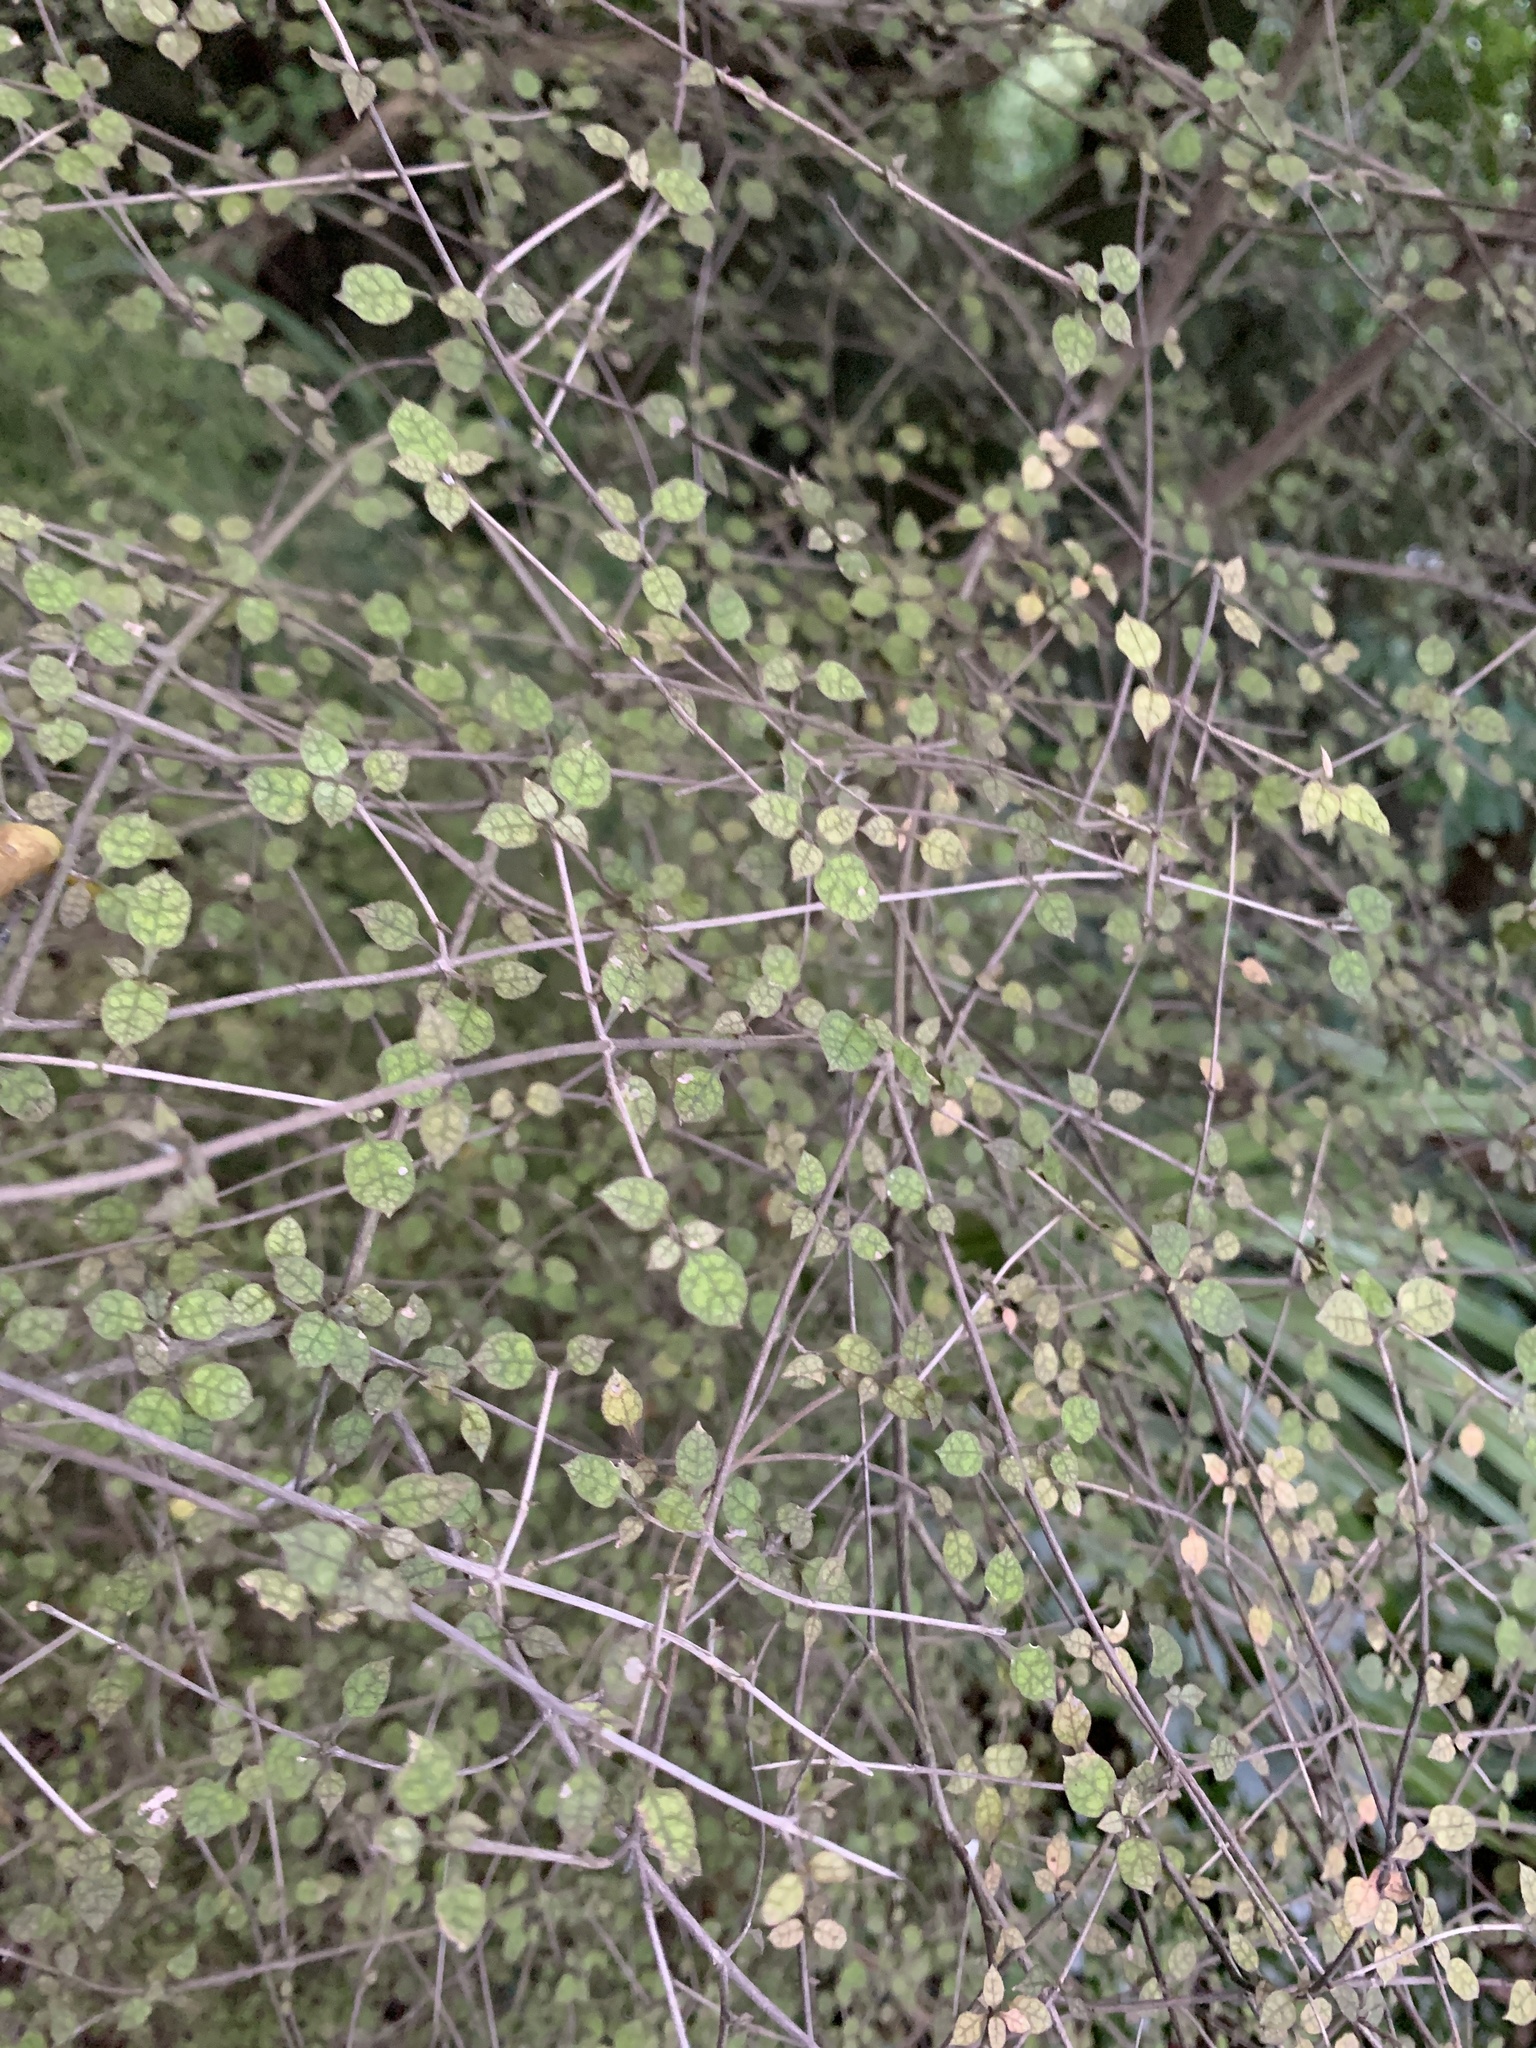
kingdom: Plantae
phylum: Tracheophyta
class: Magnoliopsida
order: Gentianales
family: Rubiaceae
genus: Coprosma
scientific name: Coprosma areolata
